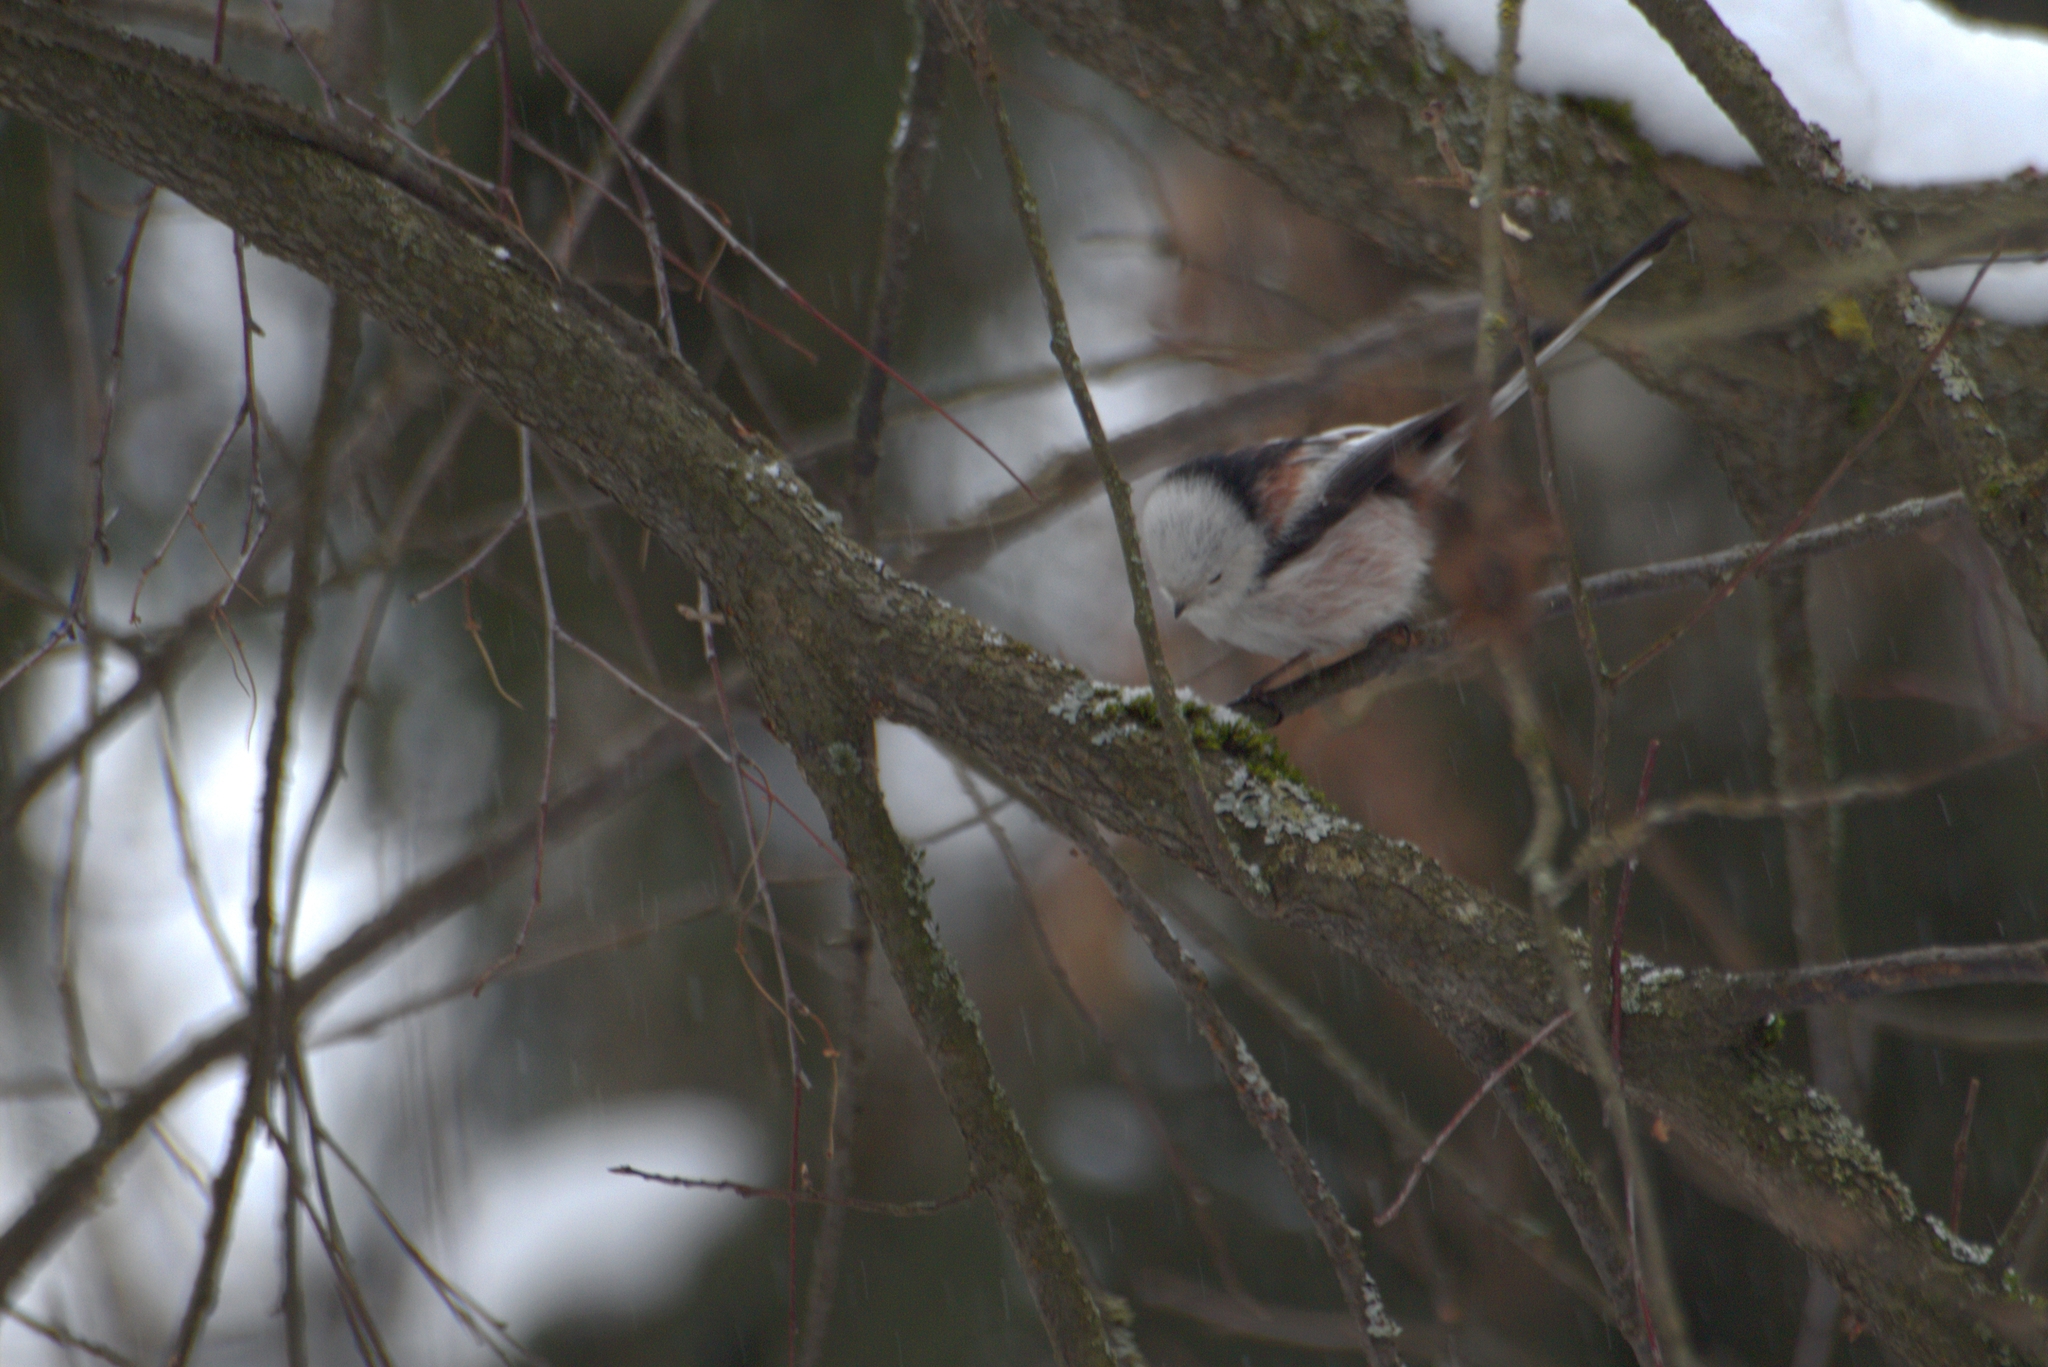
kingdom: Animalia
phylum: Chordata
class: Aves
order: Passeriformes
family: Aegithalidae
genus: Aegithalos
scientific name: Aegithalos caudatus
